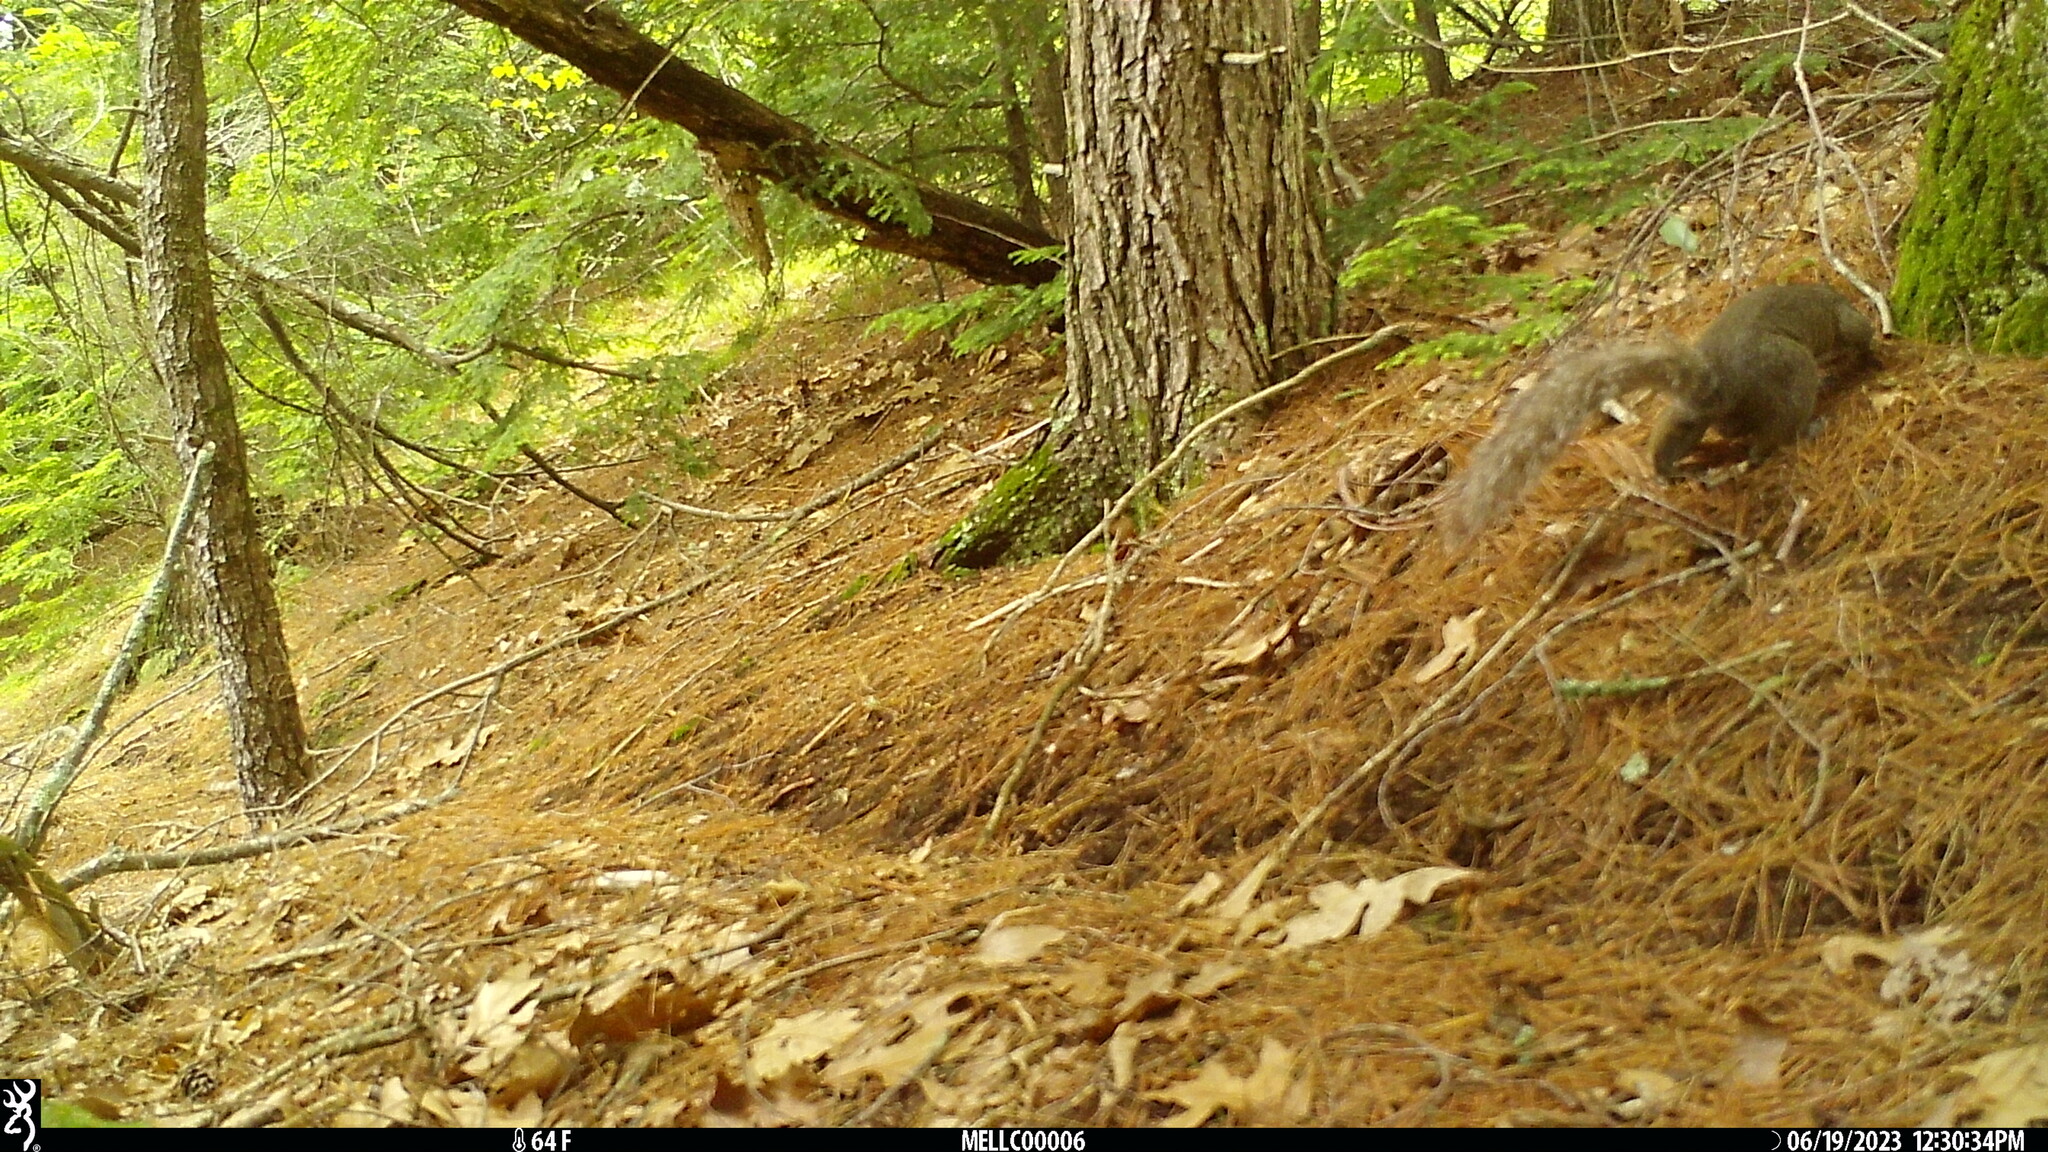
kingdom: Animalia
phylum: Chordata
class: Mammalia
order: Rodentia
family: Sciuridae
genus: Sciurus
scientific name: Sciurus carolinensis
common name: Eastern gray squirrel
